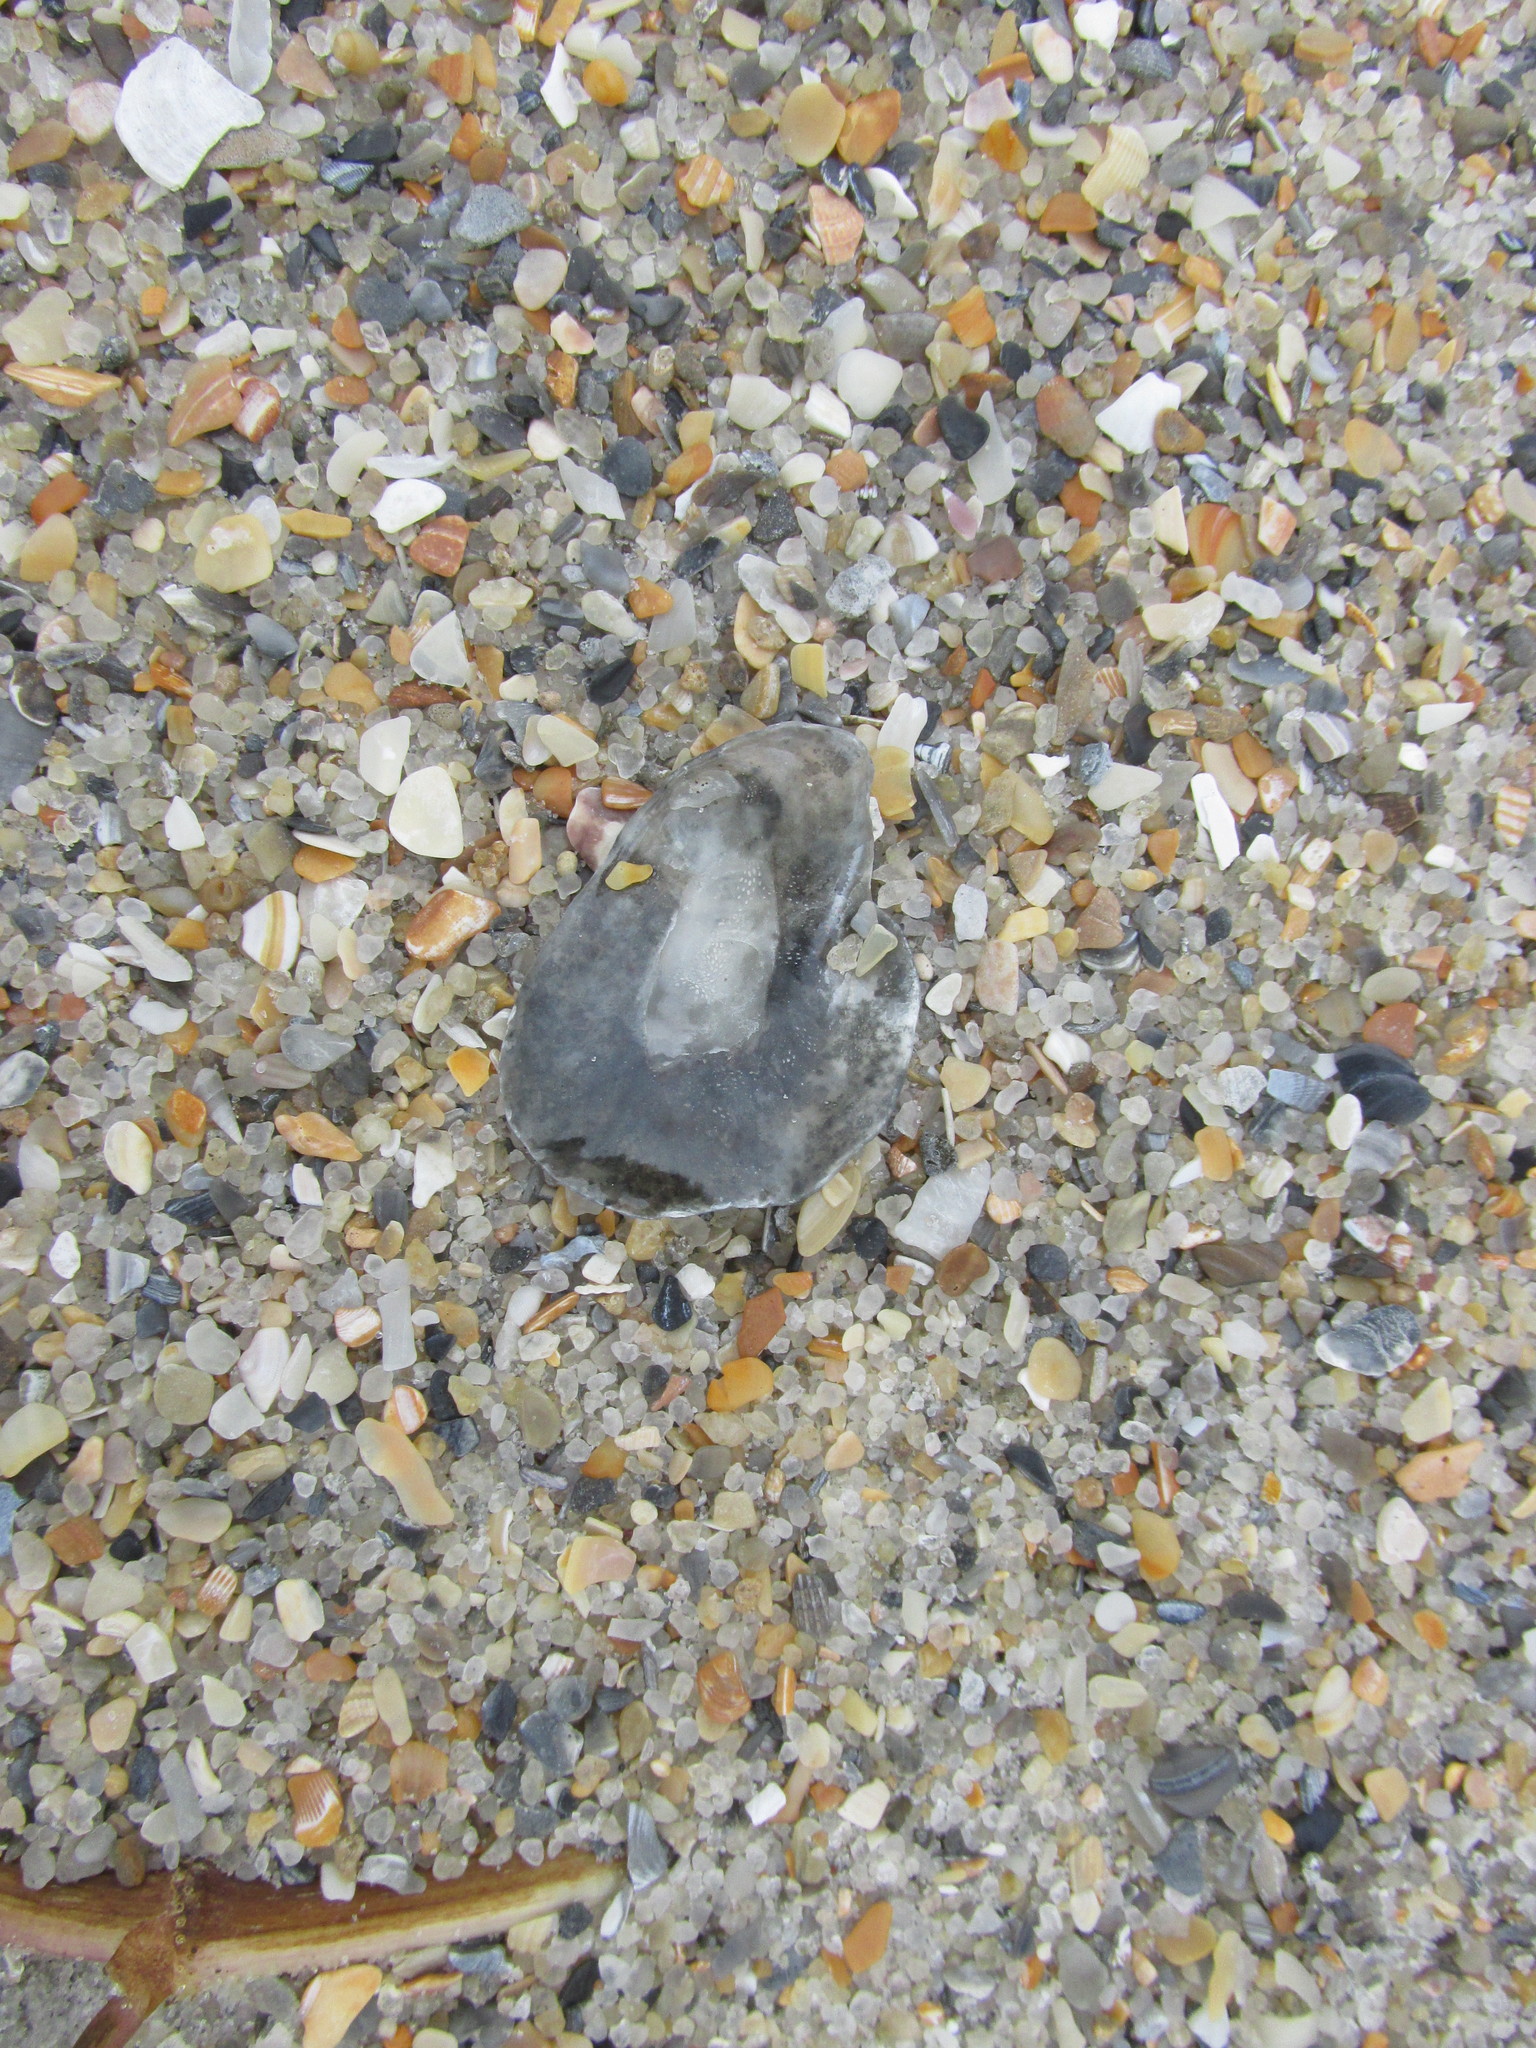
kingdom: Animalia
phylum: Mollusca
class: Bivalvia
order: Pectinida
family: Anomiidae
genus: Anomia
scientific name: Anomia simplex
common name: Common jingle shell
